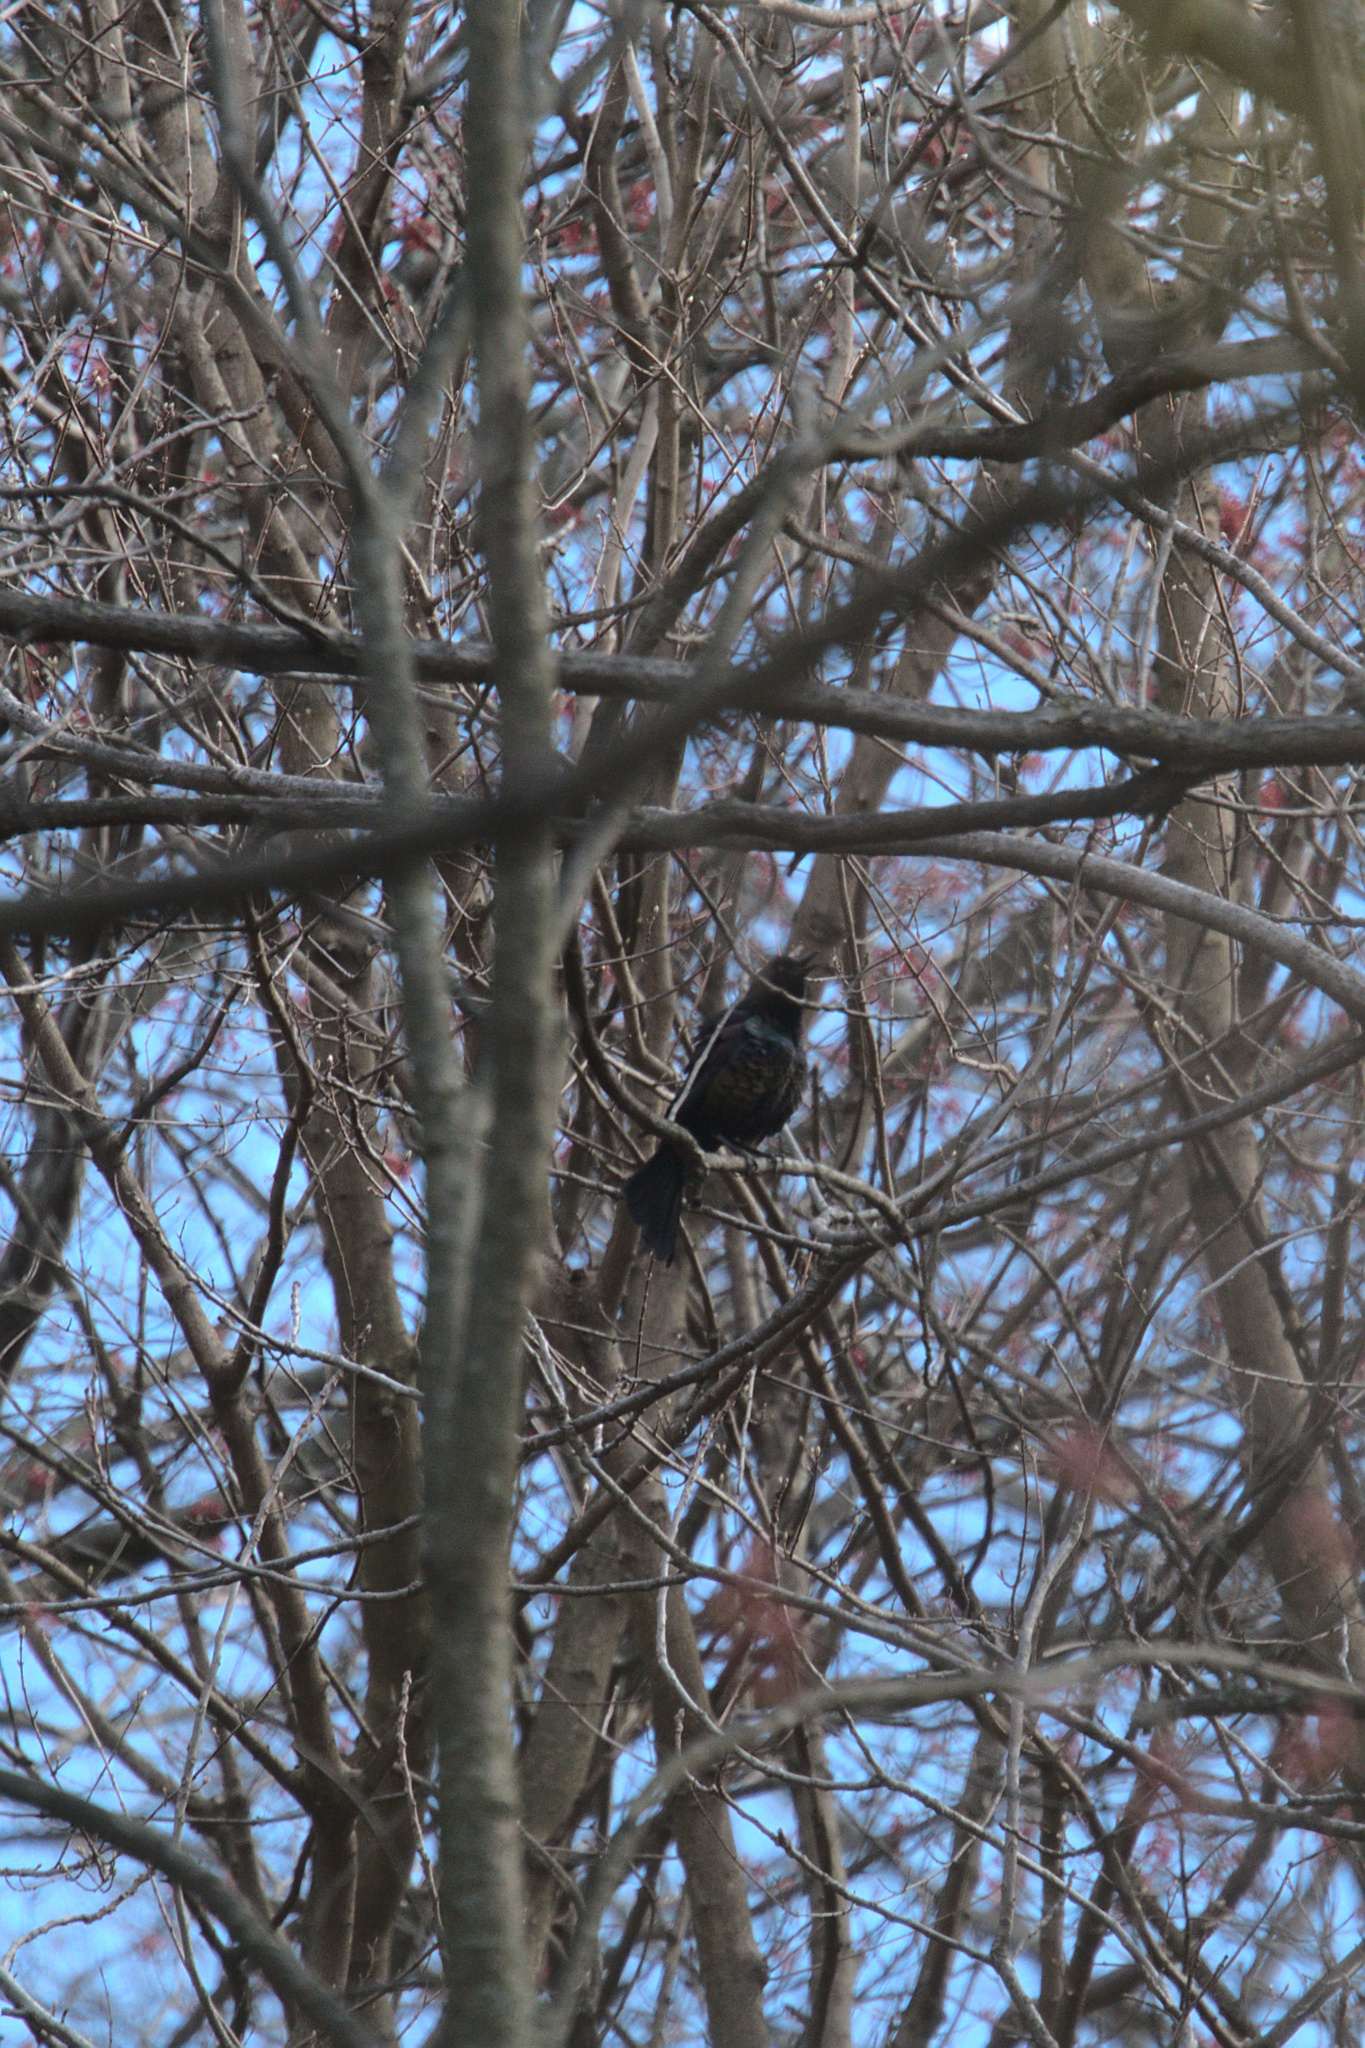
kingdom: Animalia
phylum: Chordata
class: Aves
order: Passeriformes
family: Icteridae
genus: Quiscalus
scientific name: Quiscalus quiscula
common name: Common grackle
